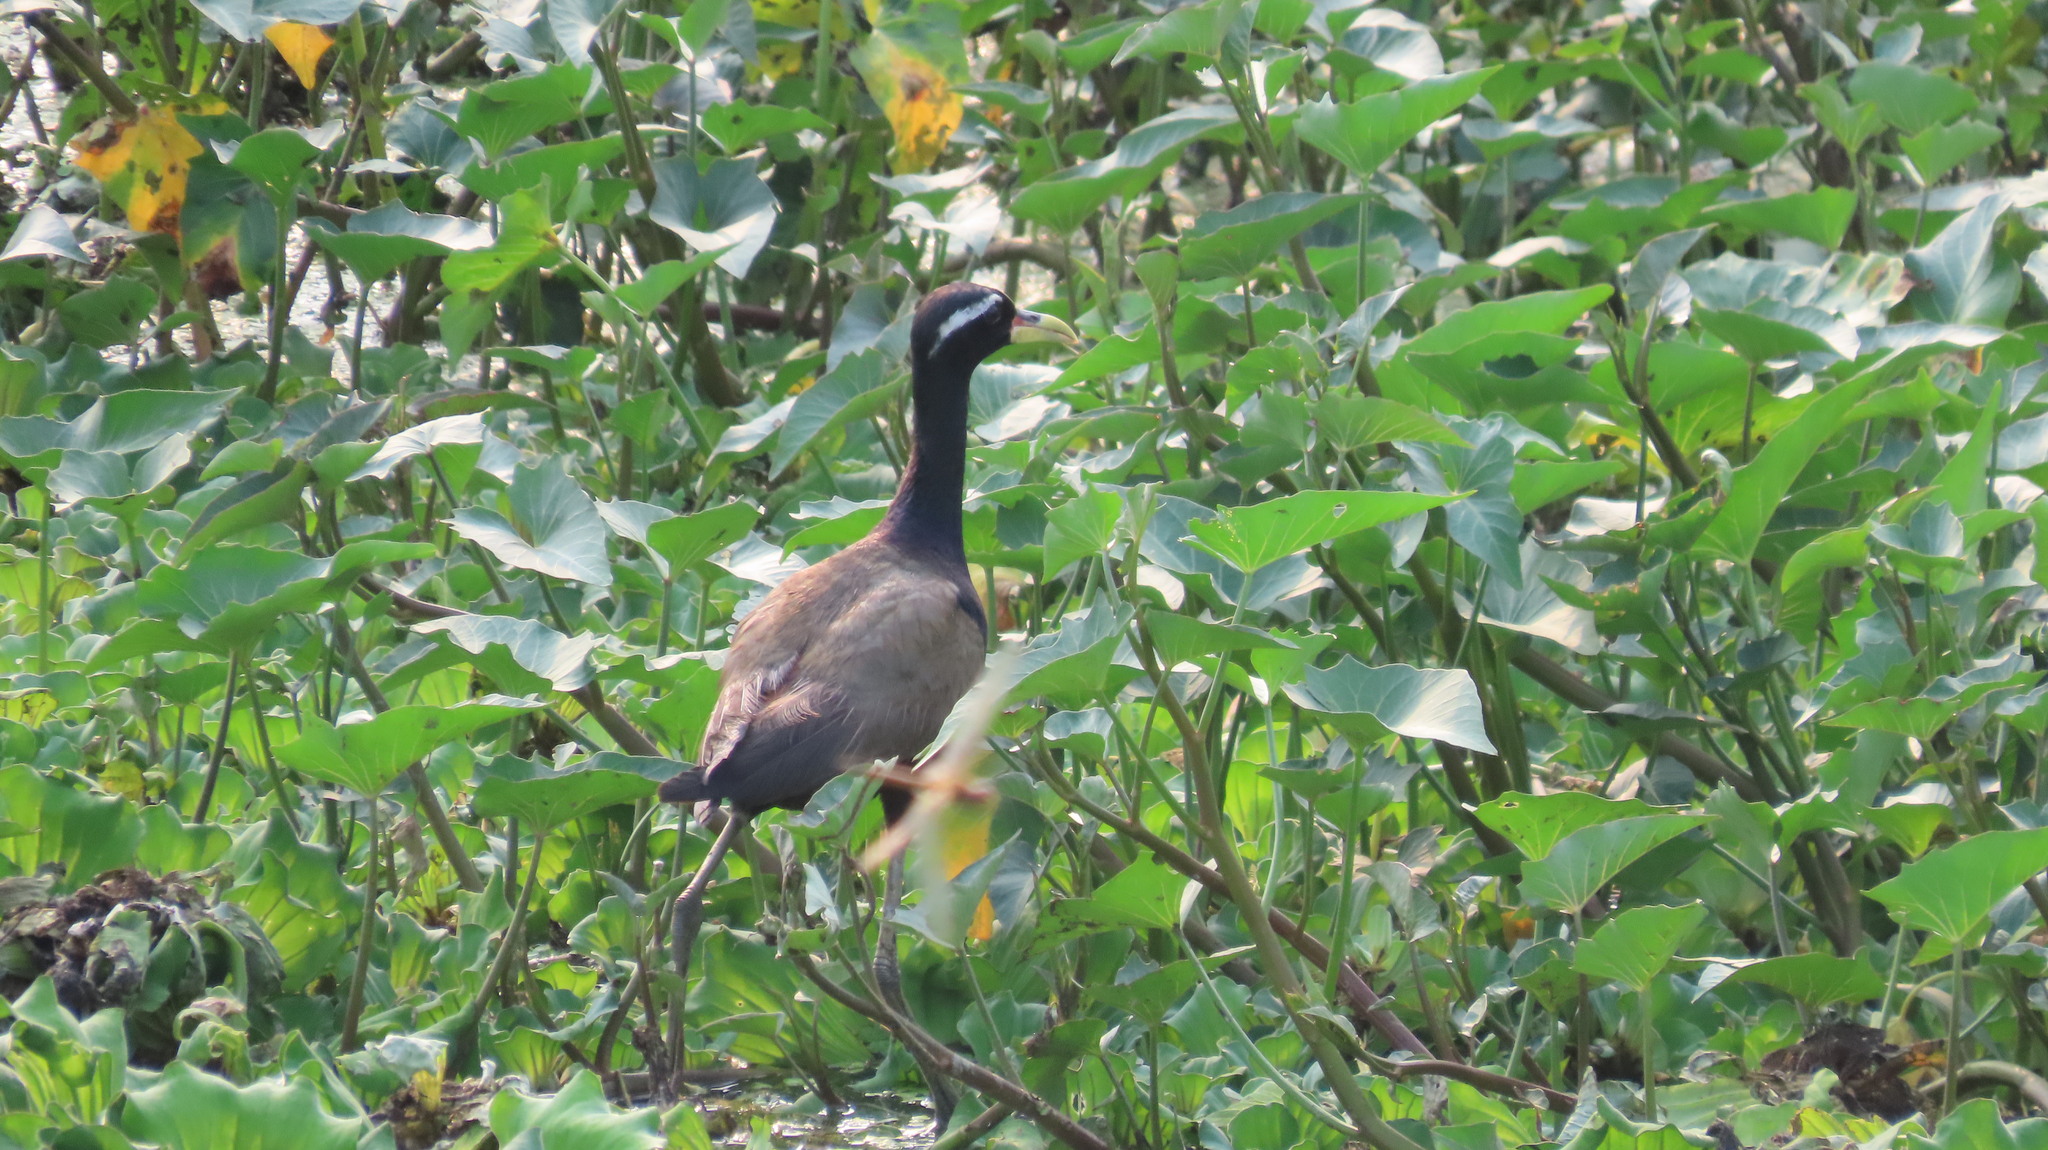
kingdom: Animalia
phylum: Chordata
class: Aves
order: Charadriiformes
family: Jacanidae
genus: Metopidius
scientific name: Metopidius indicus
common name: Bronze-winged jacana
